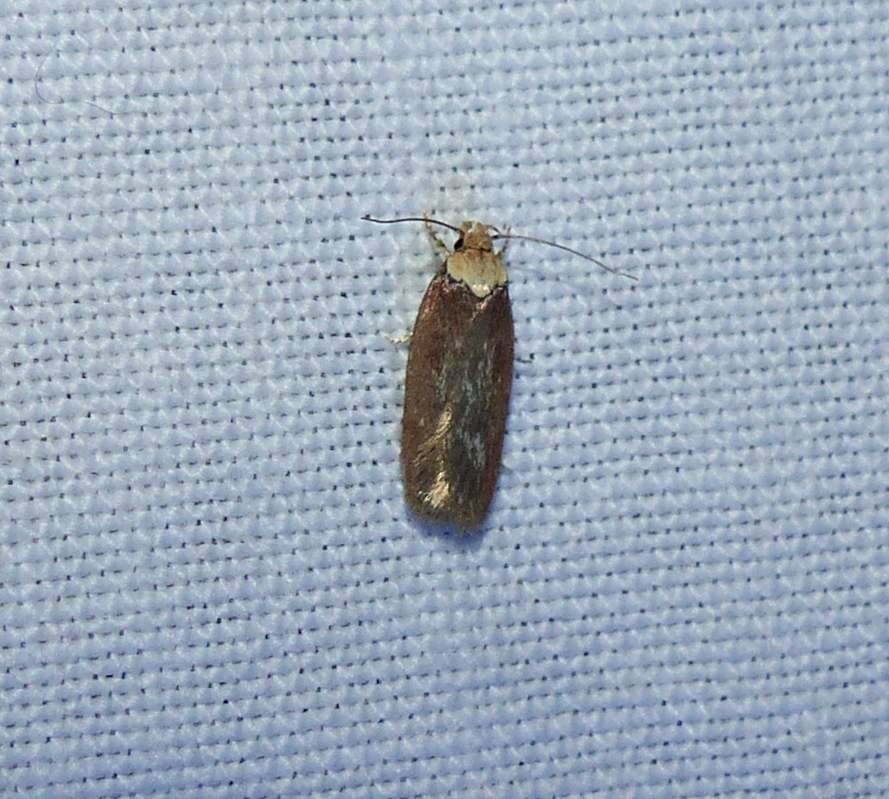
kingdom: Animalia
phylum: Arthropoda
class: Insecta
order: Lepidoptera
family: Depressariidae
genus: Depressaria
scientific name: Depressaria depressana
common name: Lost flat-body
